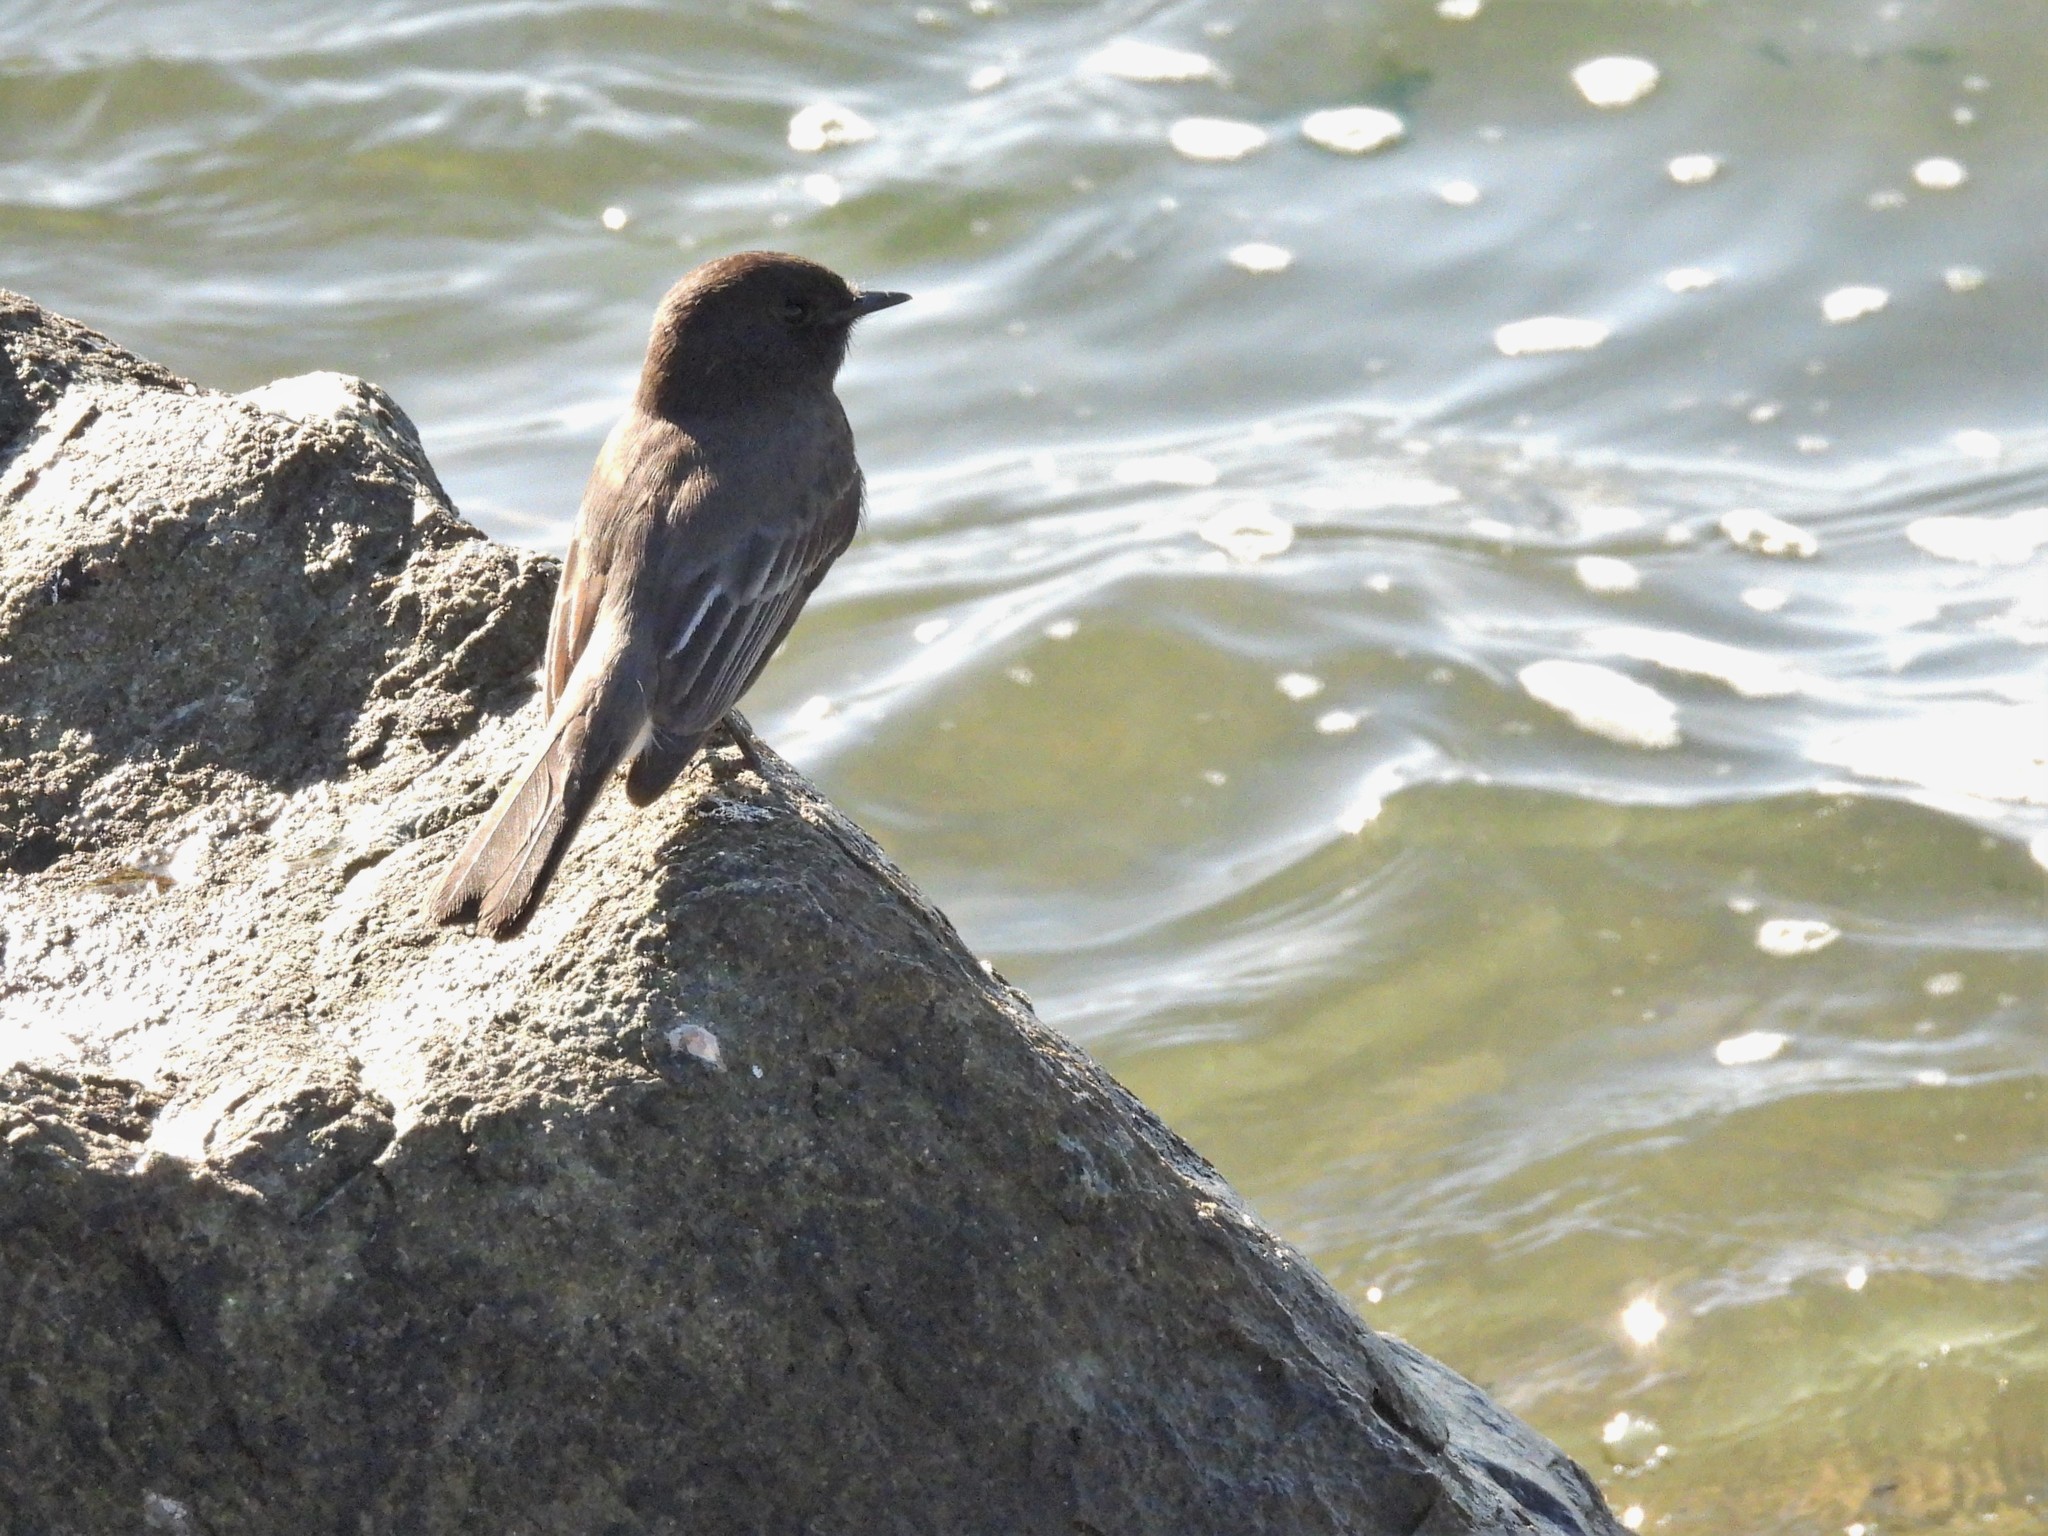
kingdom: Animalia
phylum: Chordata
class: Aves
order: Passeriformes
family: Tyrannidae
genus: Sayornis
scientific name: Sayornis nigricans
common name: Black phoebe
